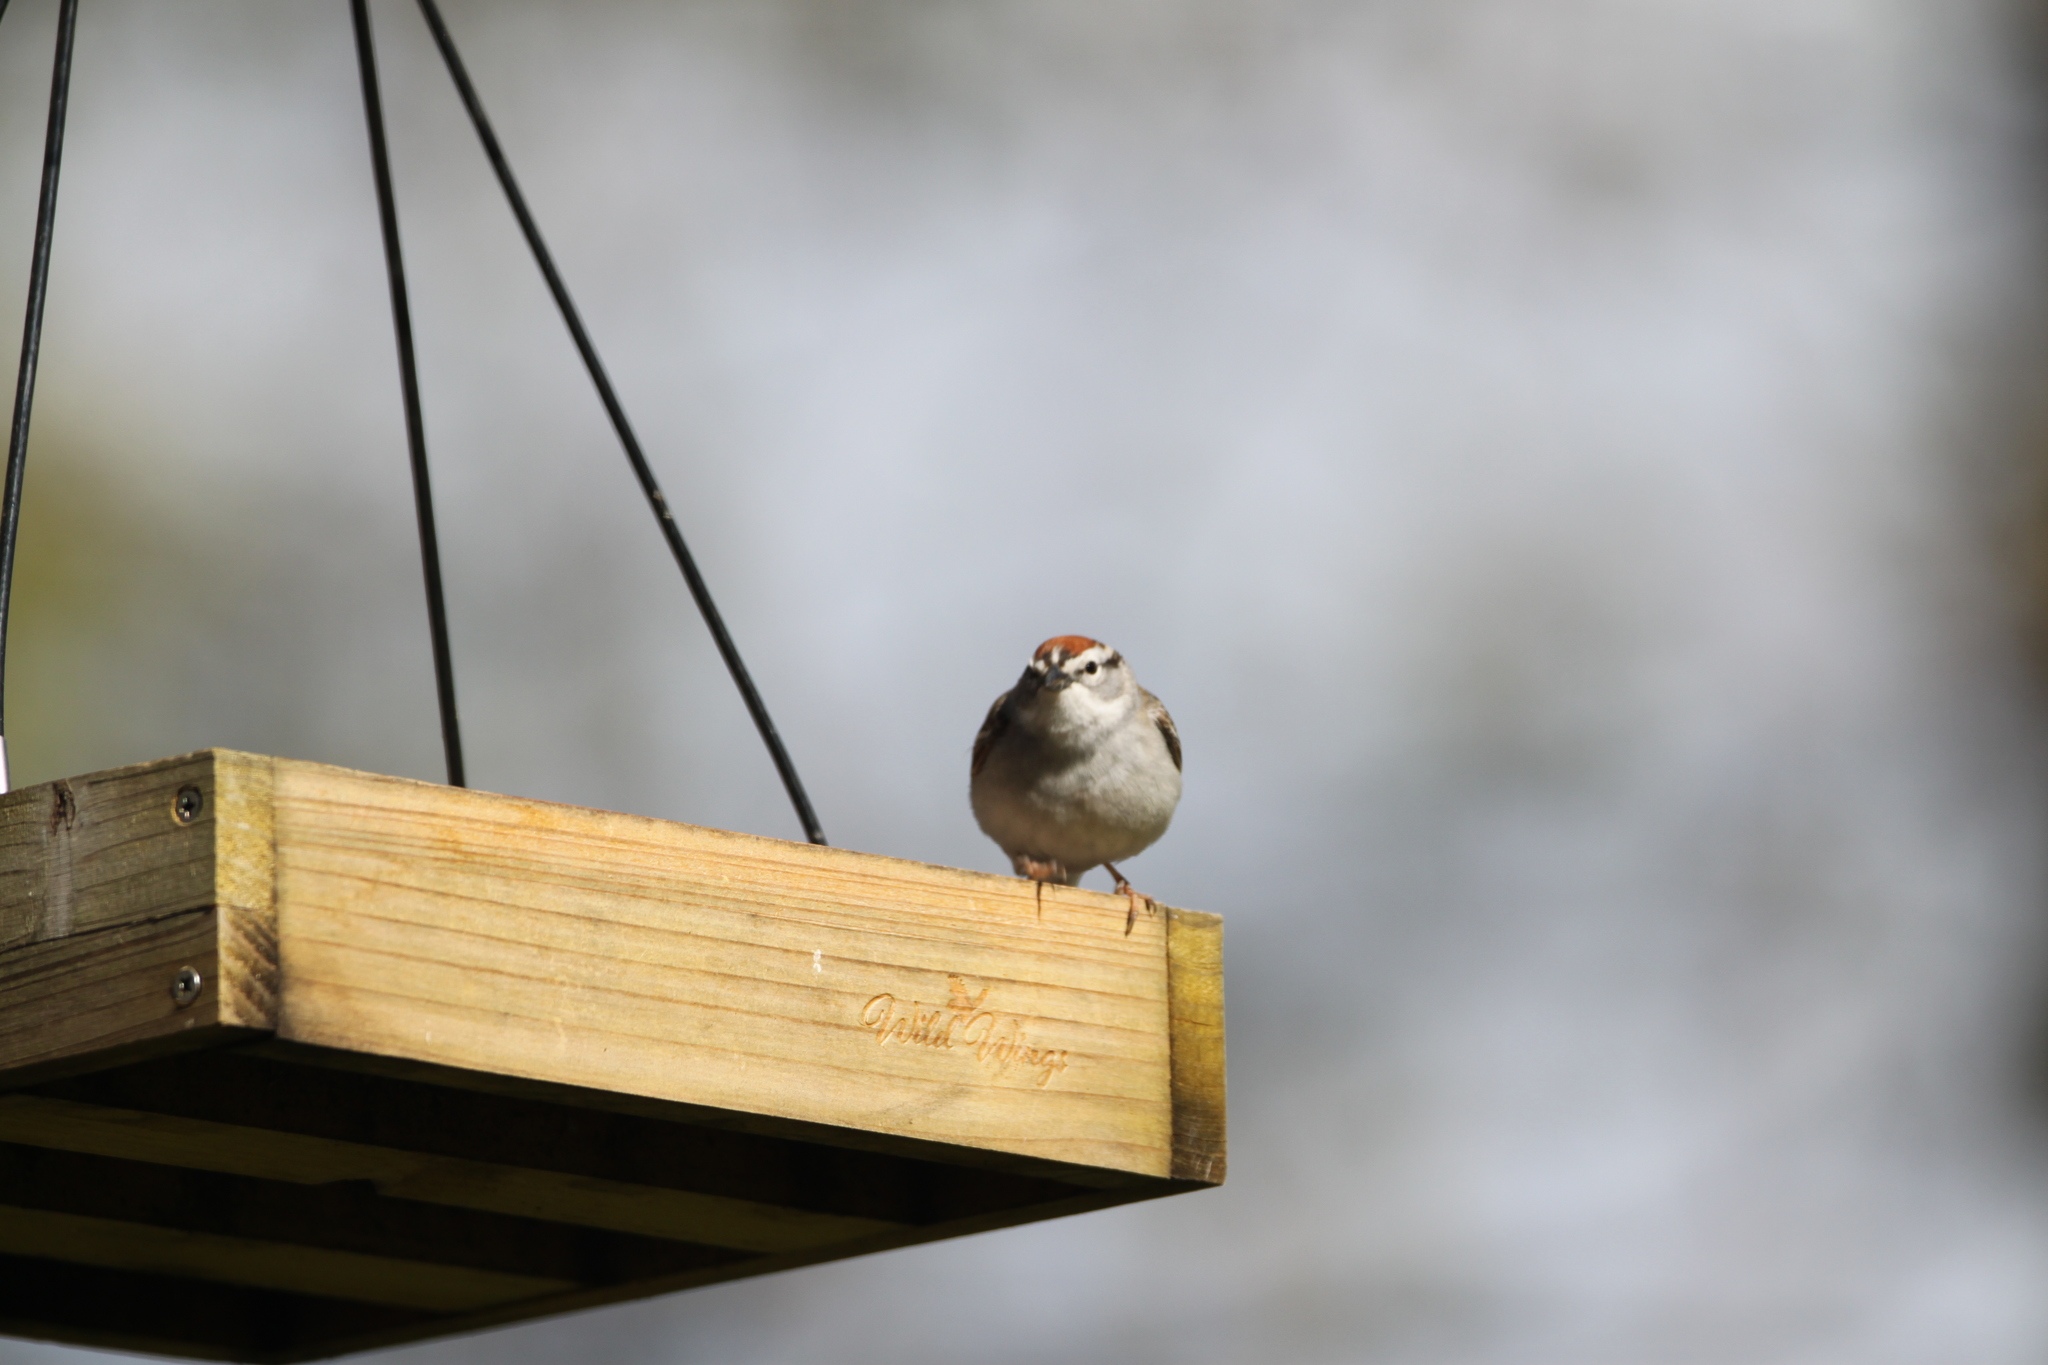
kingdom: Animalia
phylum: Chordata
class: Aves
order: Passeriformes
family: Passerellidae
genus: Spizella
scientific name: Spizella passerina
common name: Chipping sparrow
